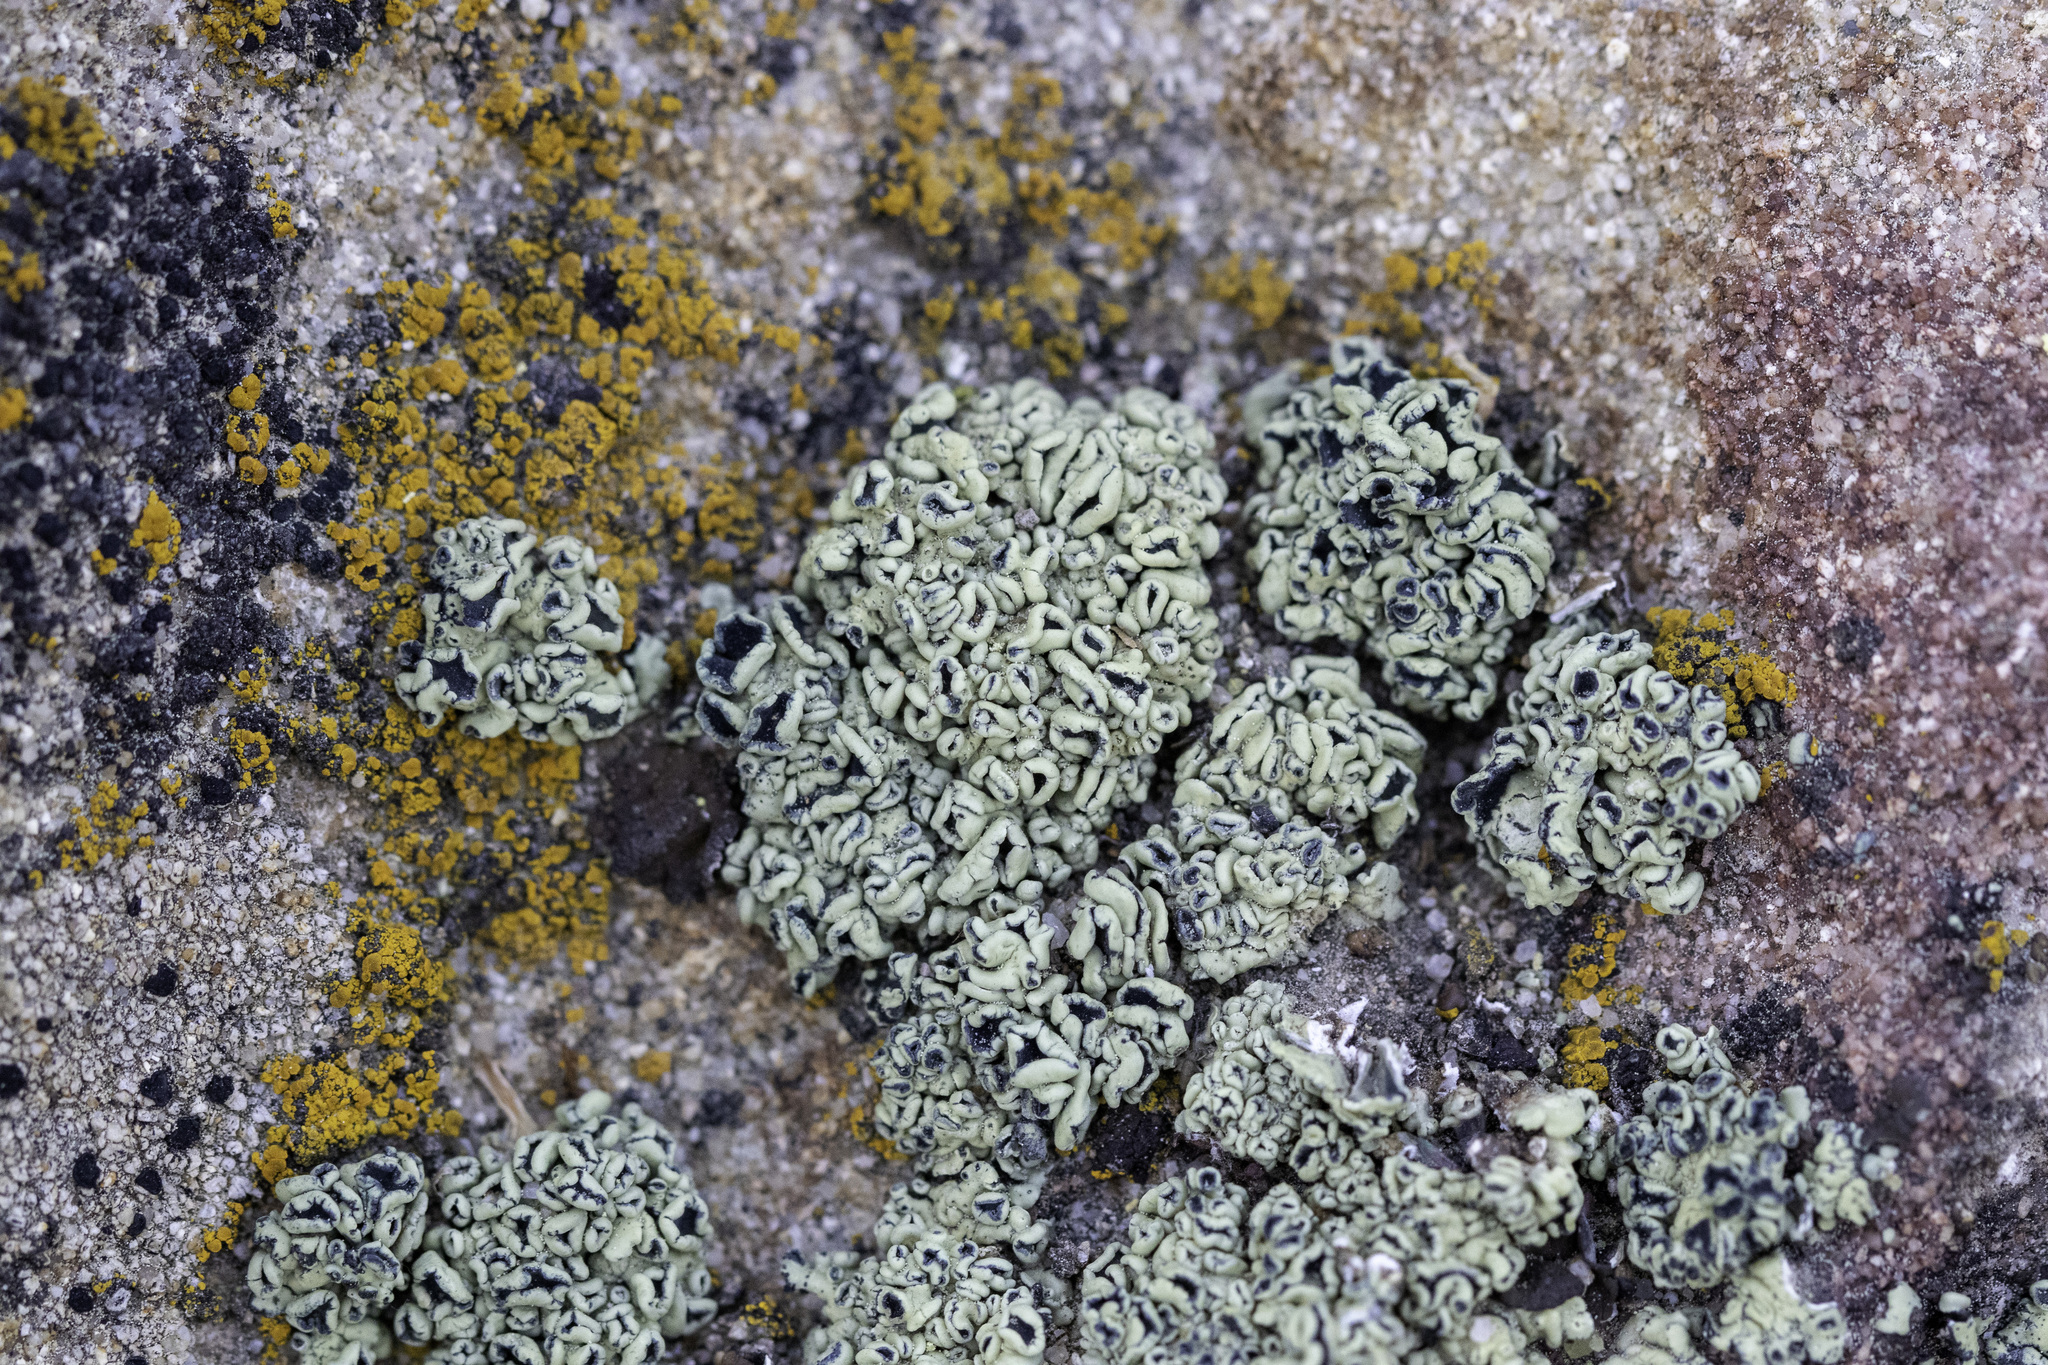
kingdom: Fungi
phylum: Ascomycota
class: Lecanoromycetes
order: Lecanorales
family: Lecanoraceae
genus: Rhizoplaca
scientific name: Rhizoplaca melanophthalma
